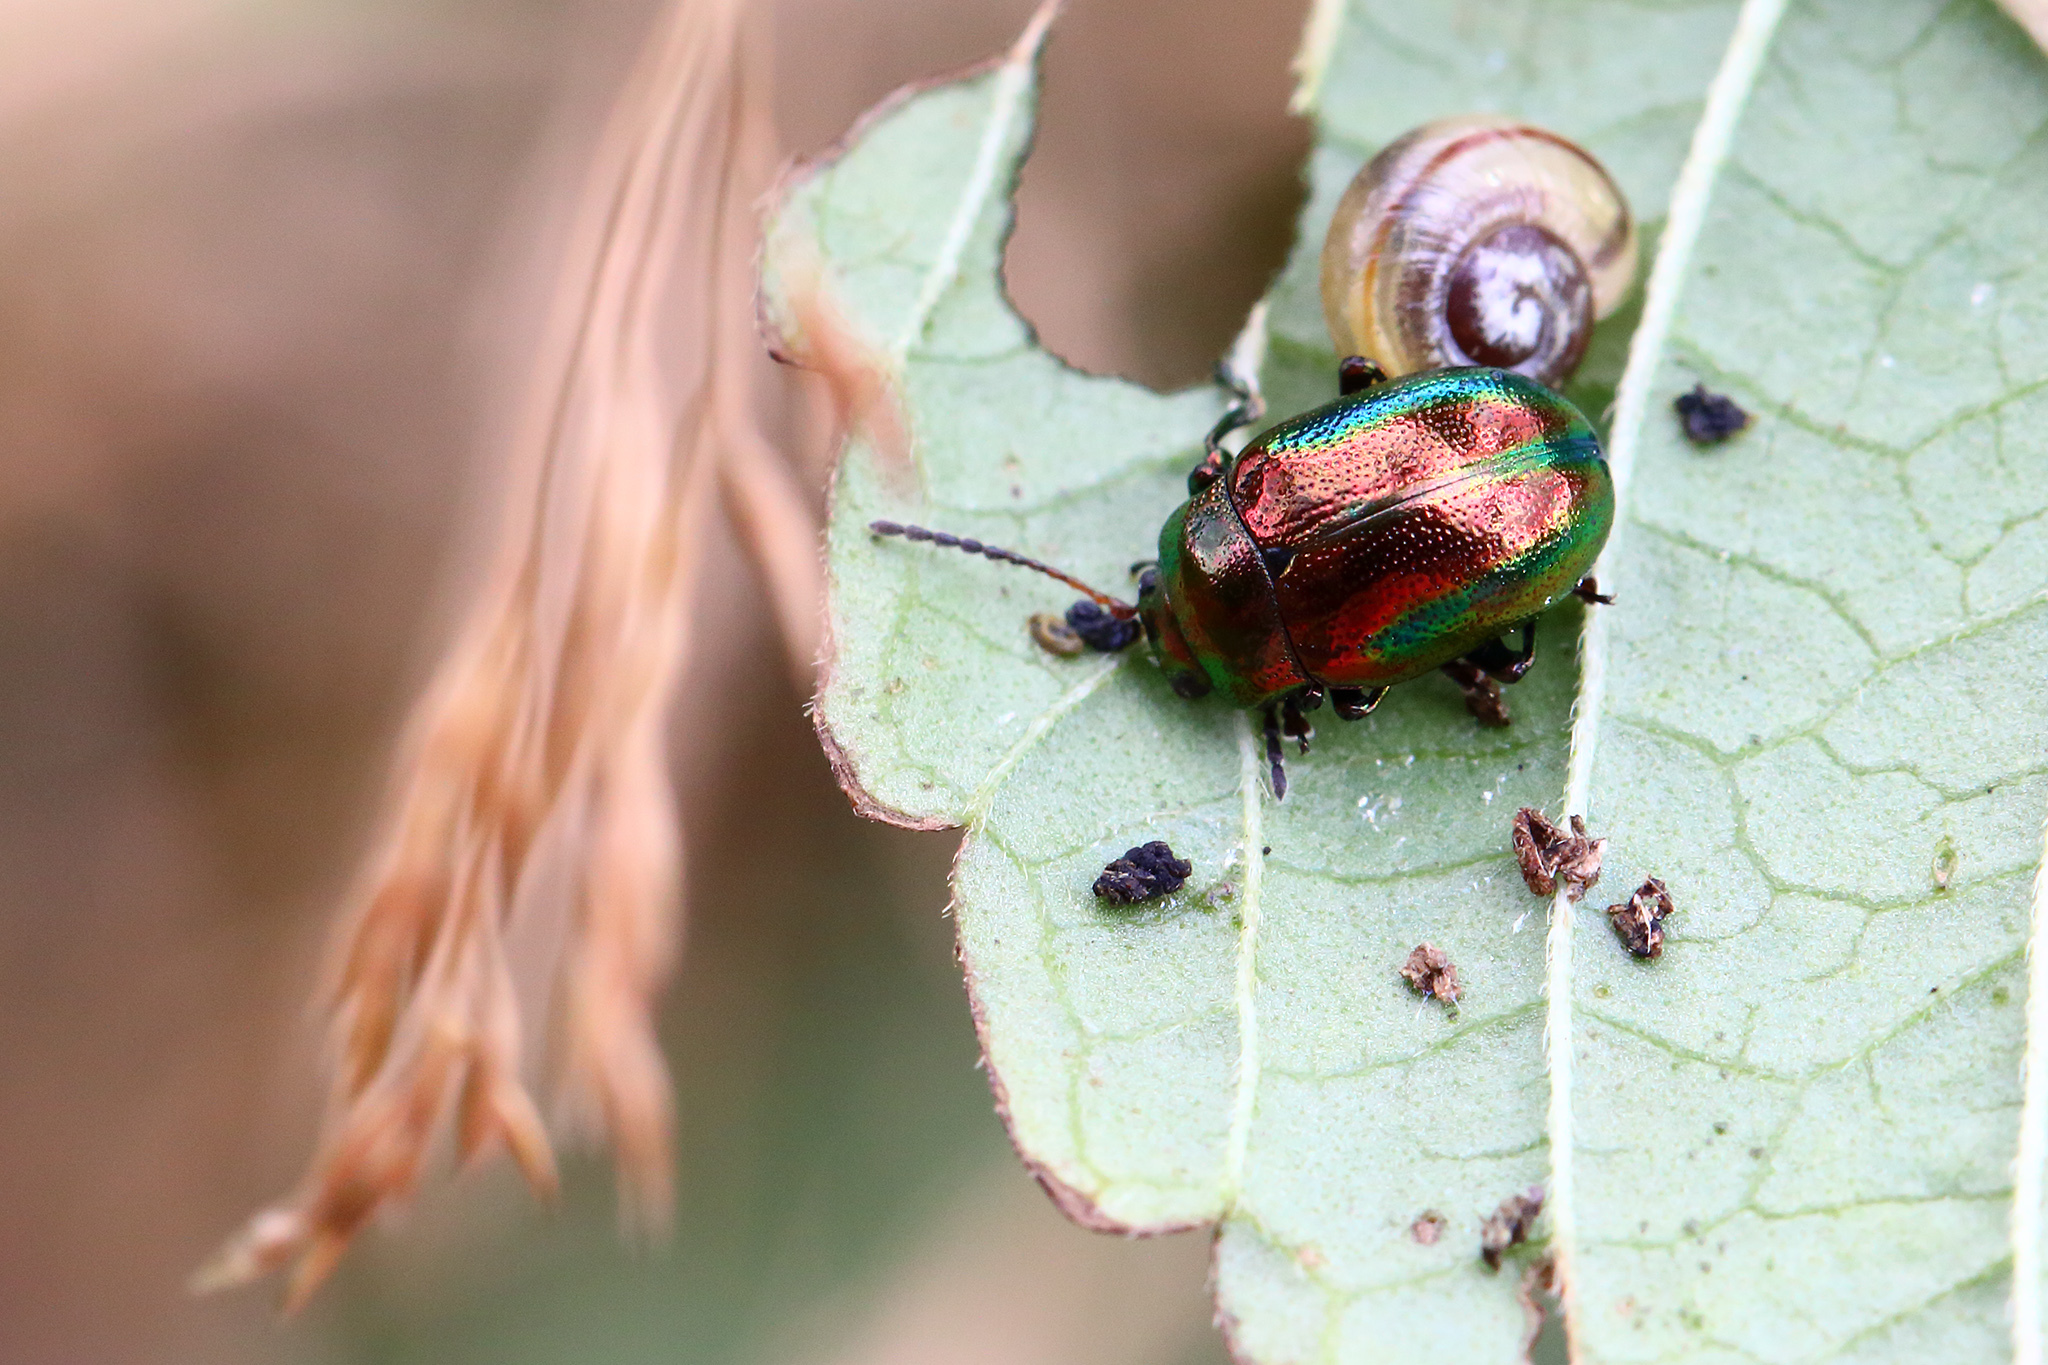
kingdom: Animalia
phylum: Arthropoda
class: Insecta
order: Coleoptera
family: Chrysomelidae
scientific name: Chrysomelidae
